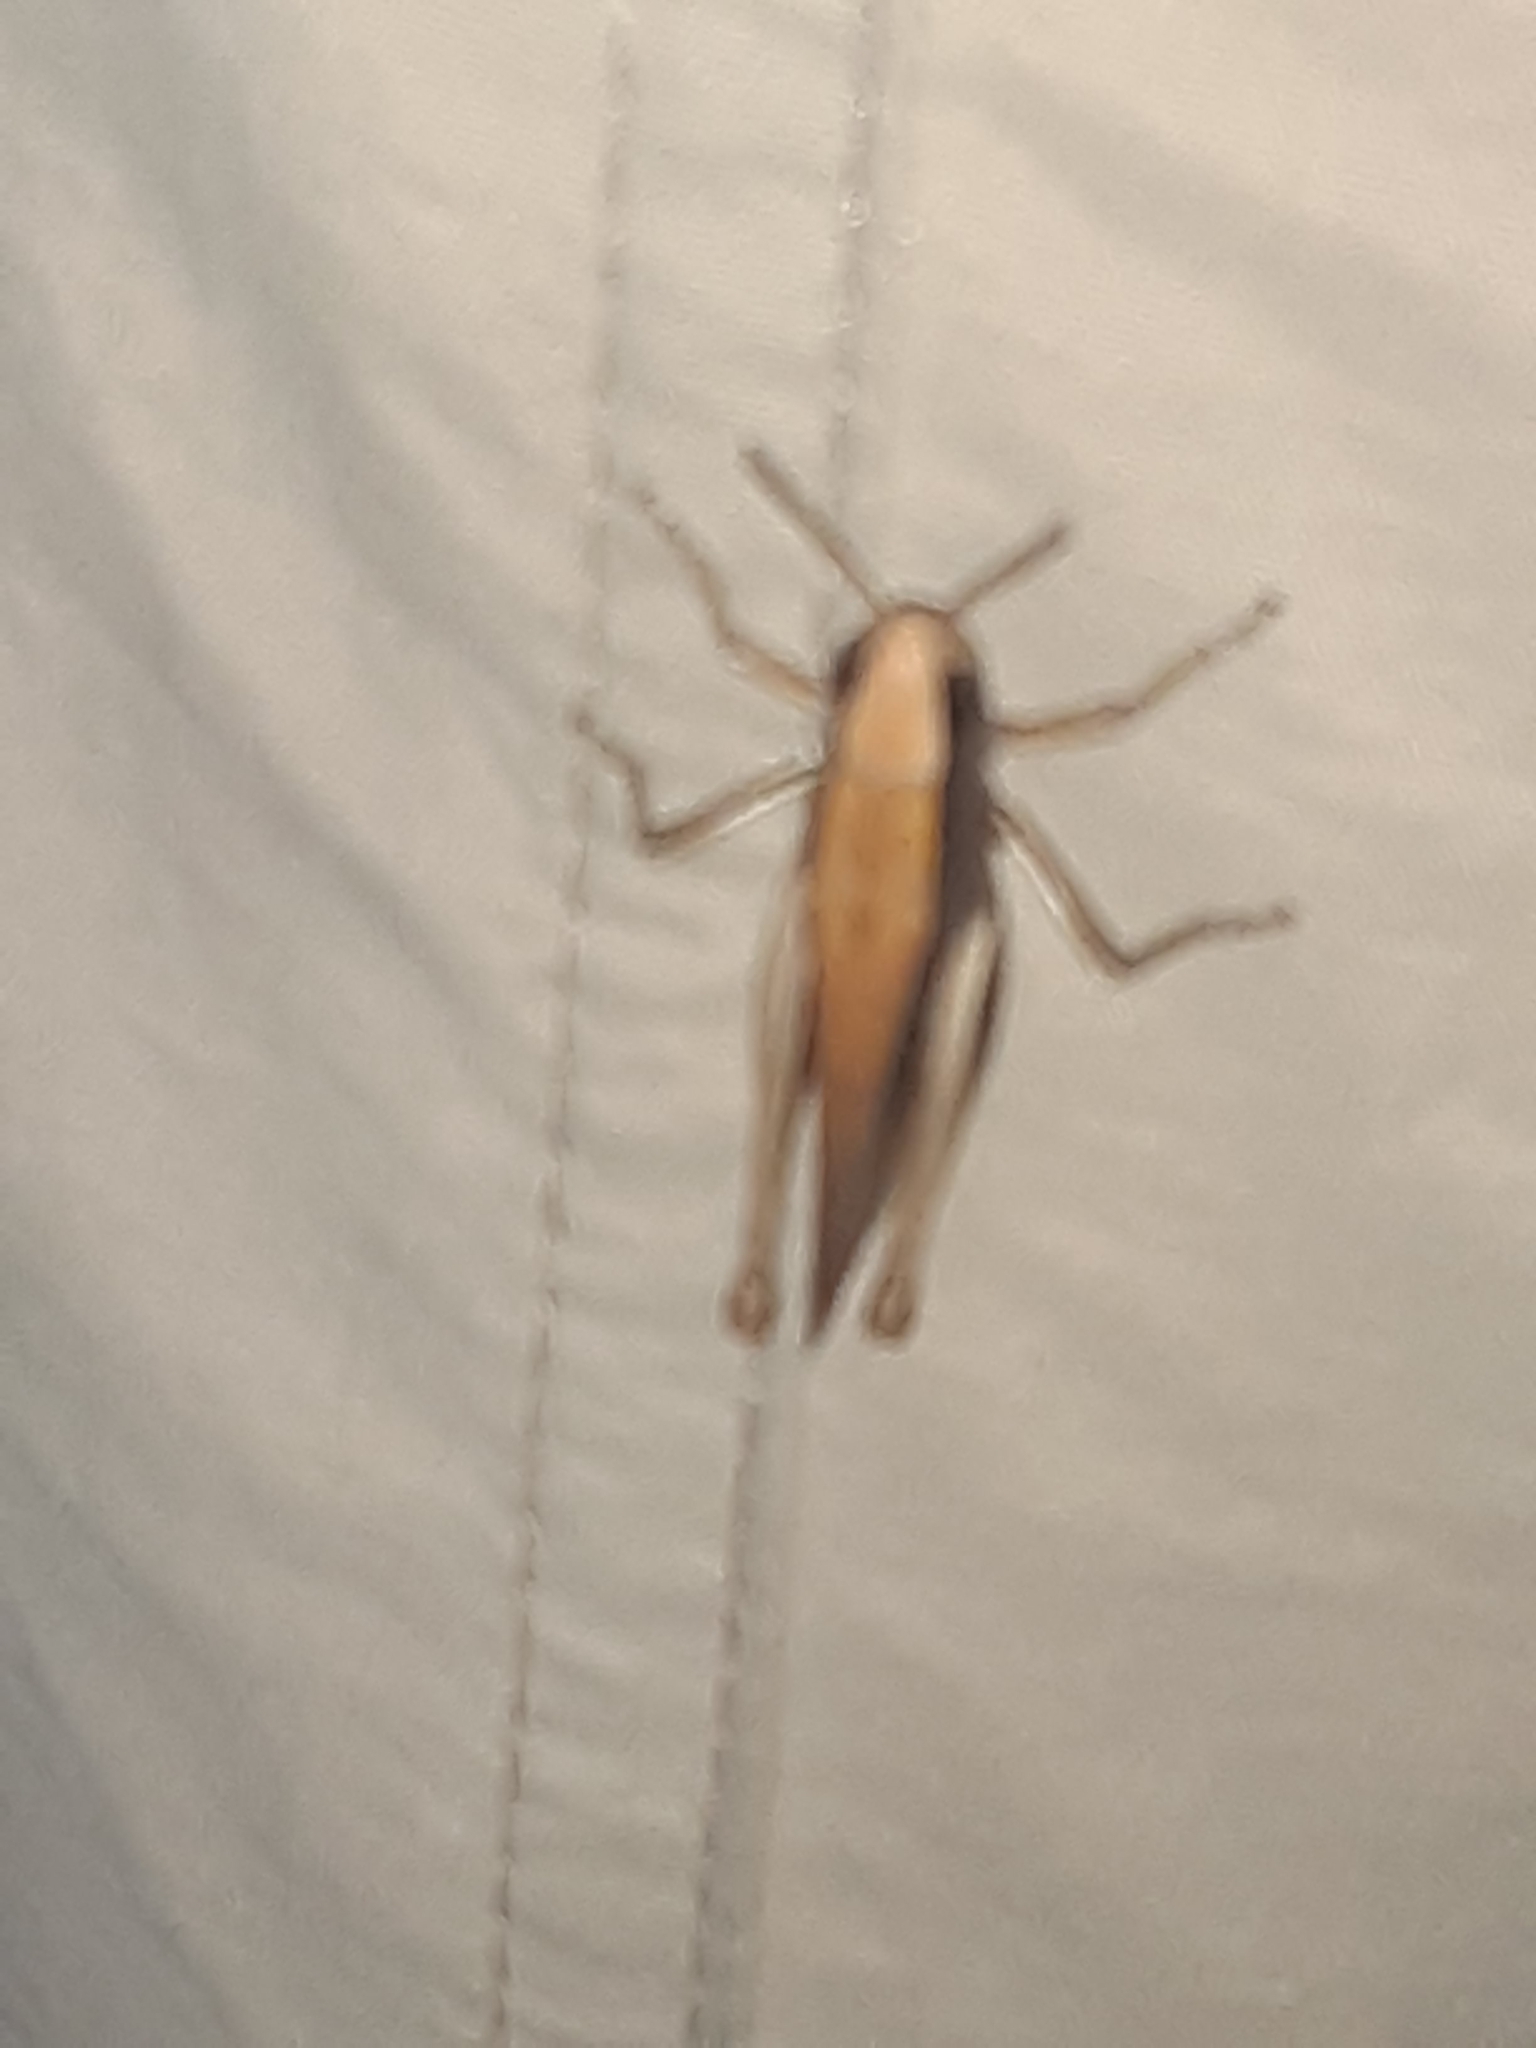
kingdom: Animalia
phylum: Arthropoda
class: Insecta
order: Orthoptera
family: Acrididae
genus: Amblytropidia
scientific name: Amblytropidia mysteca
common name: Brown winter grasshopper
